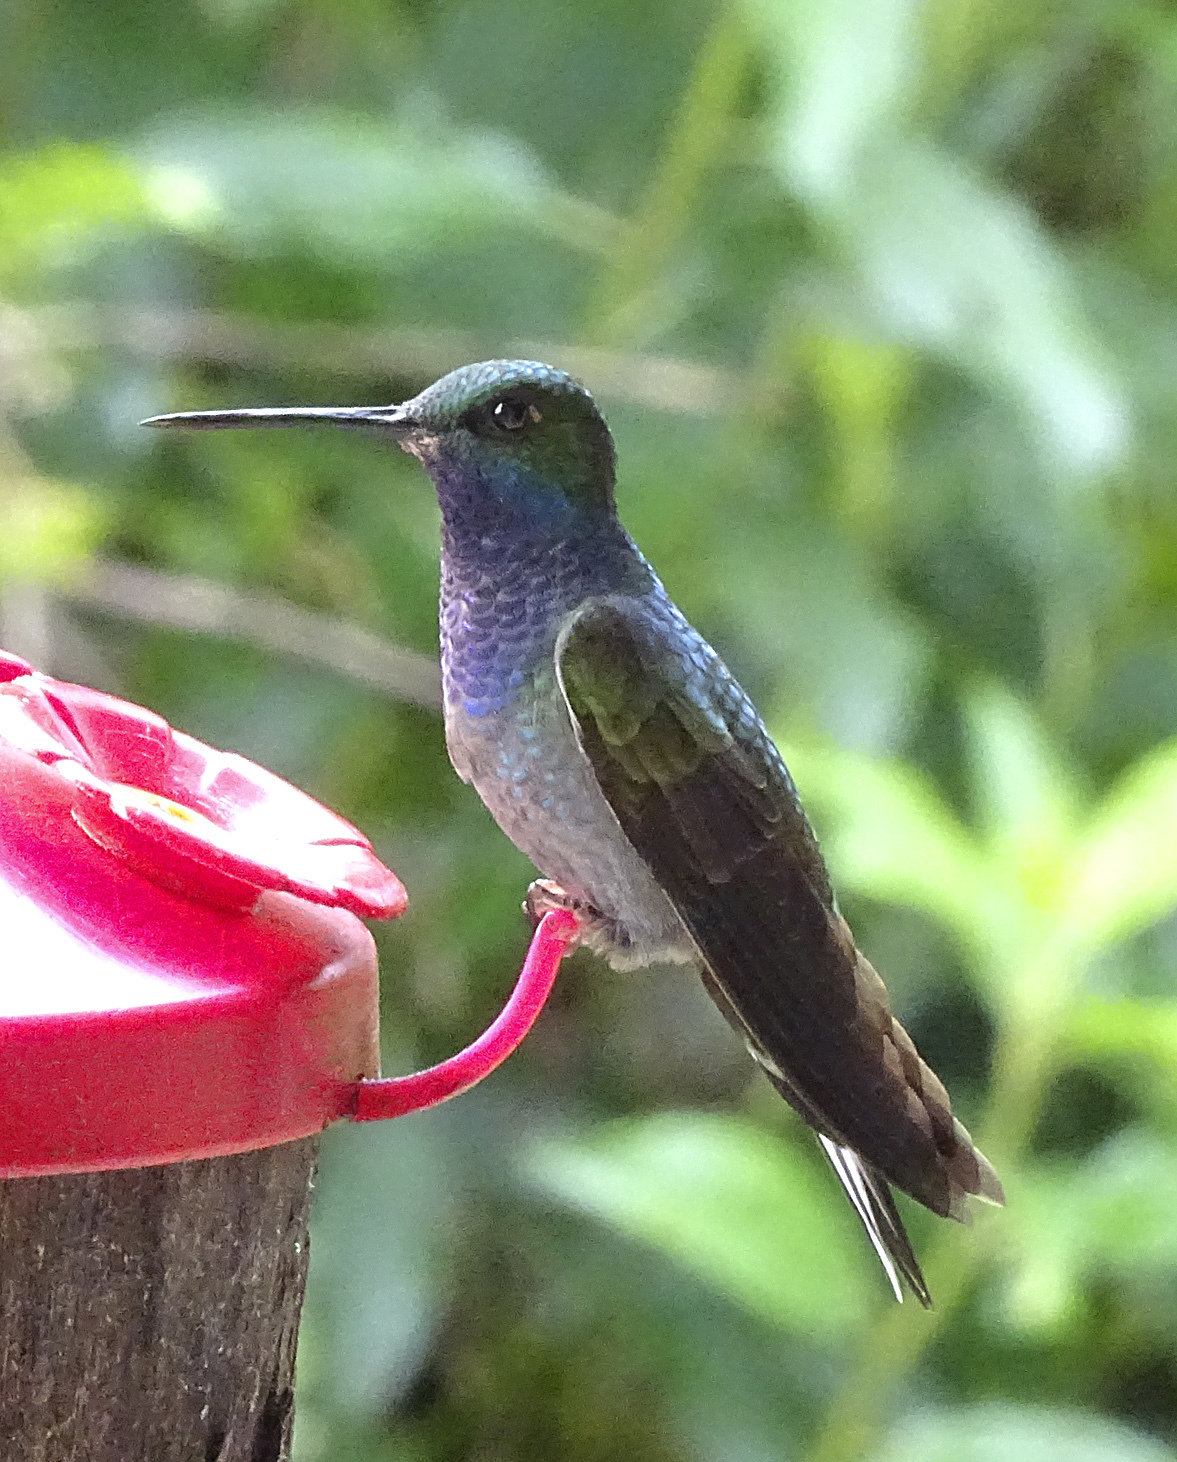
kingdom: Animalia
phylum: Chordata
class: Aves
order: Apodiformes
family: Trochilidae
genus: Urochroa
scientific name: Urochroa leucura
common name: Green-backed hillstar
